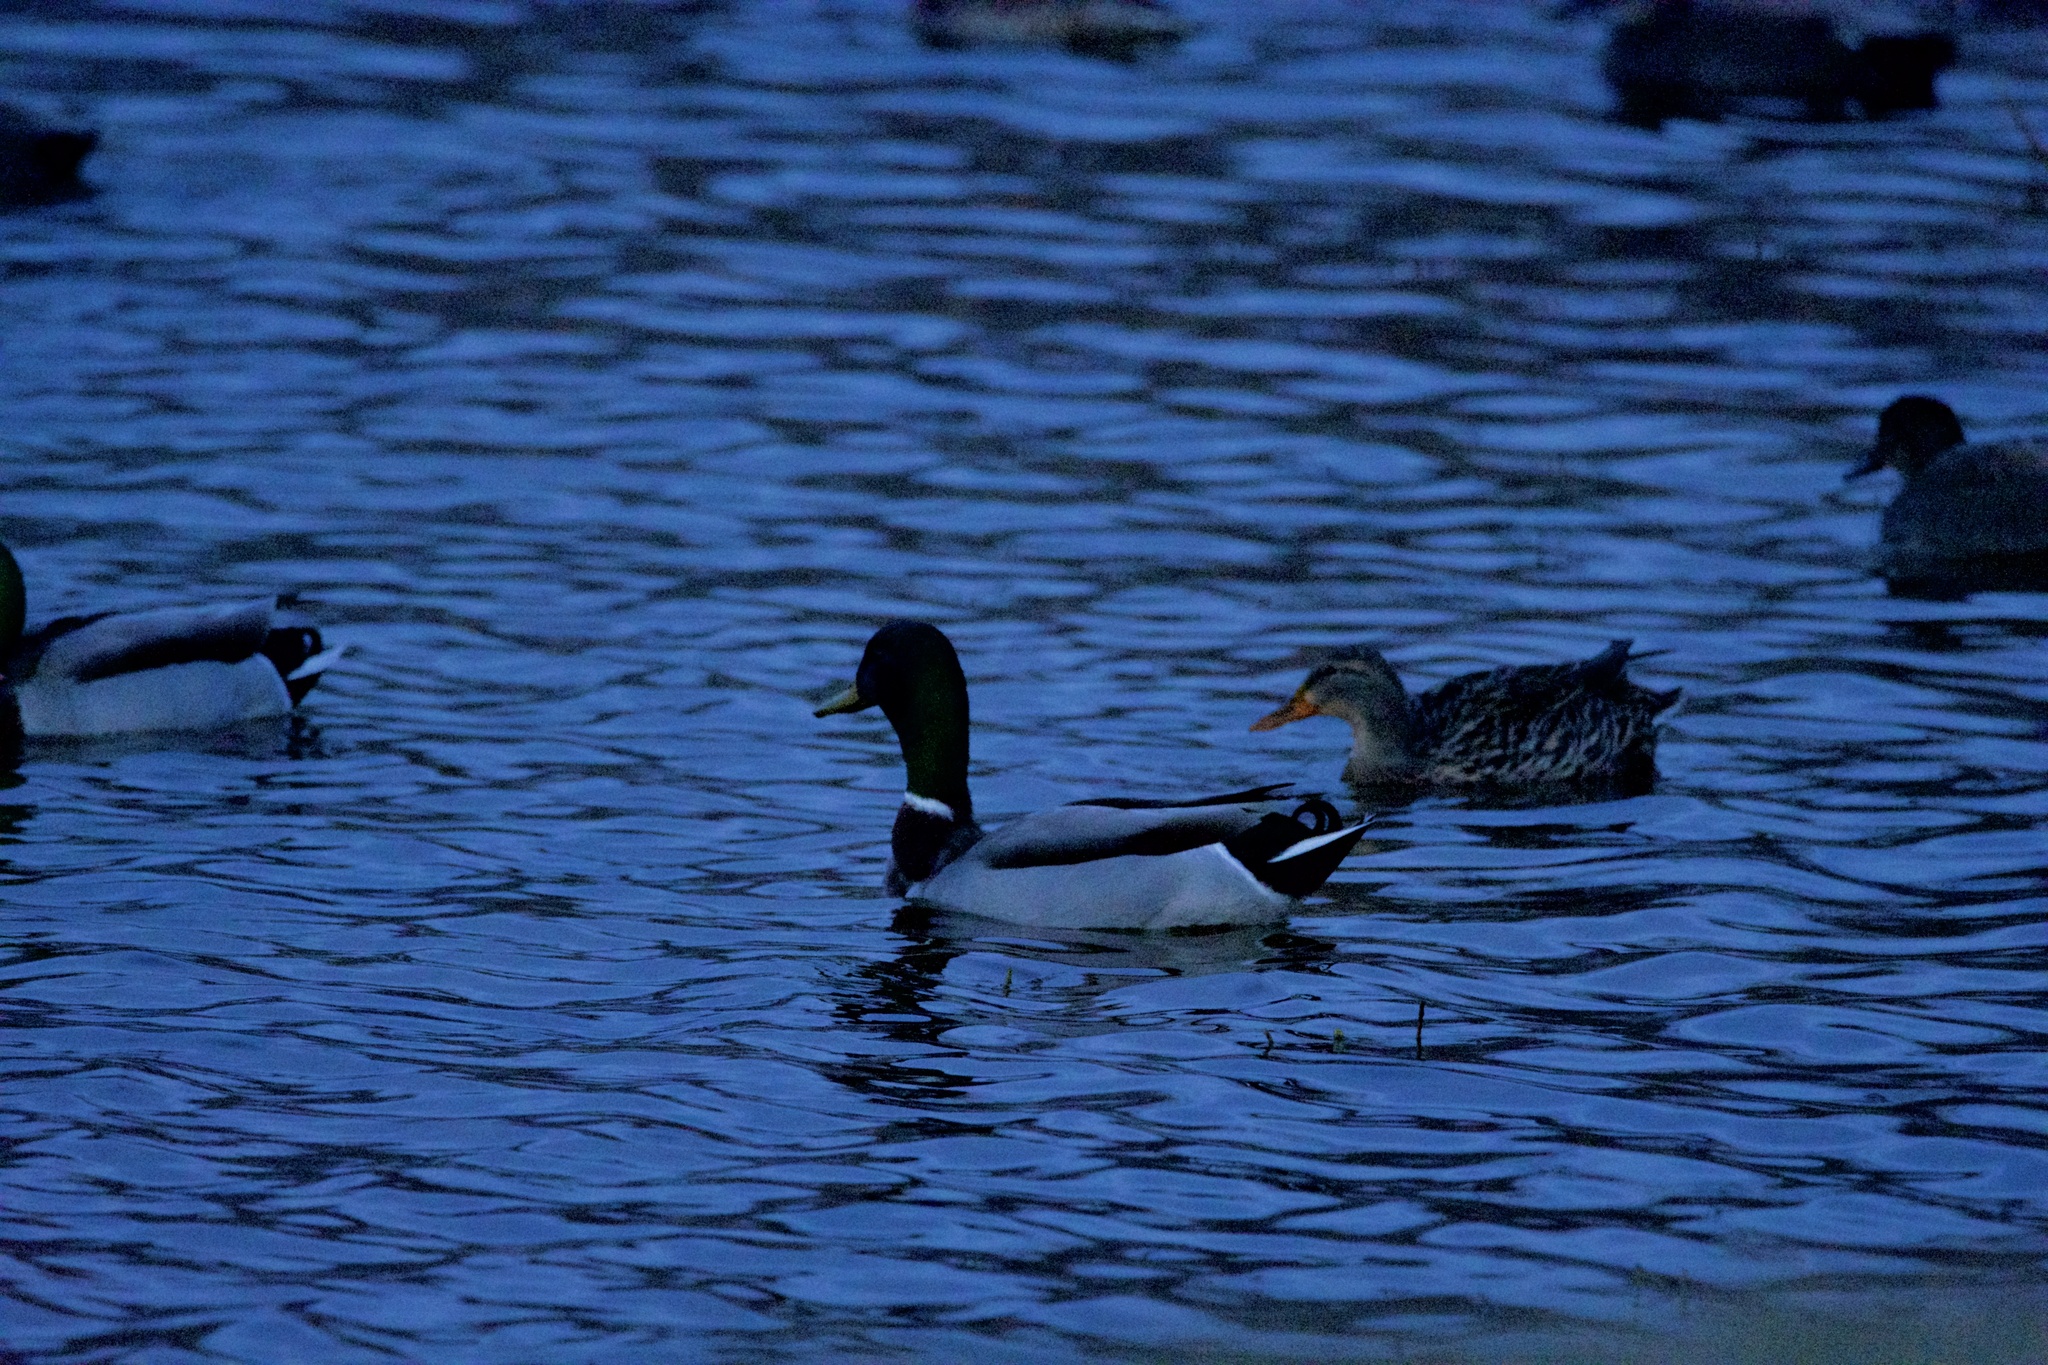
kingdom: Animalia
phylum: Chordata
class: Aves
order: Anseriformes
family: Anatidae
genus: Anas
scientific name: Anas platyrhynchos
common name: Mallard
